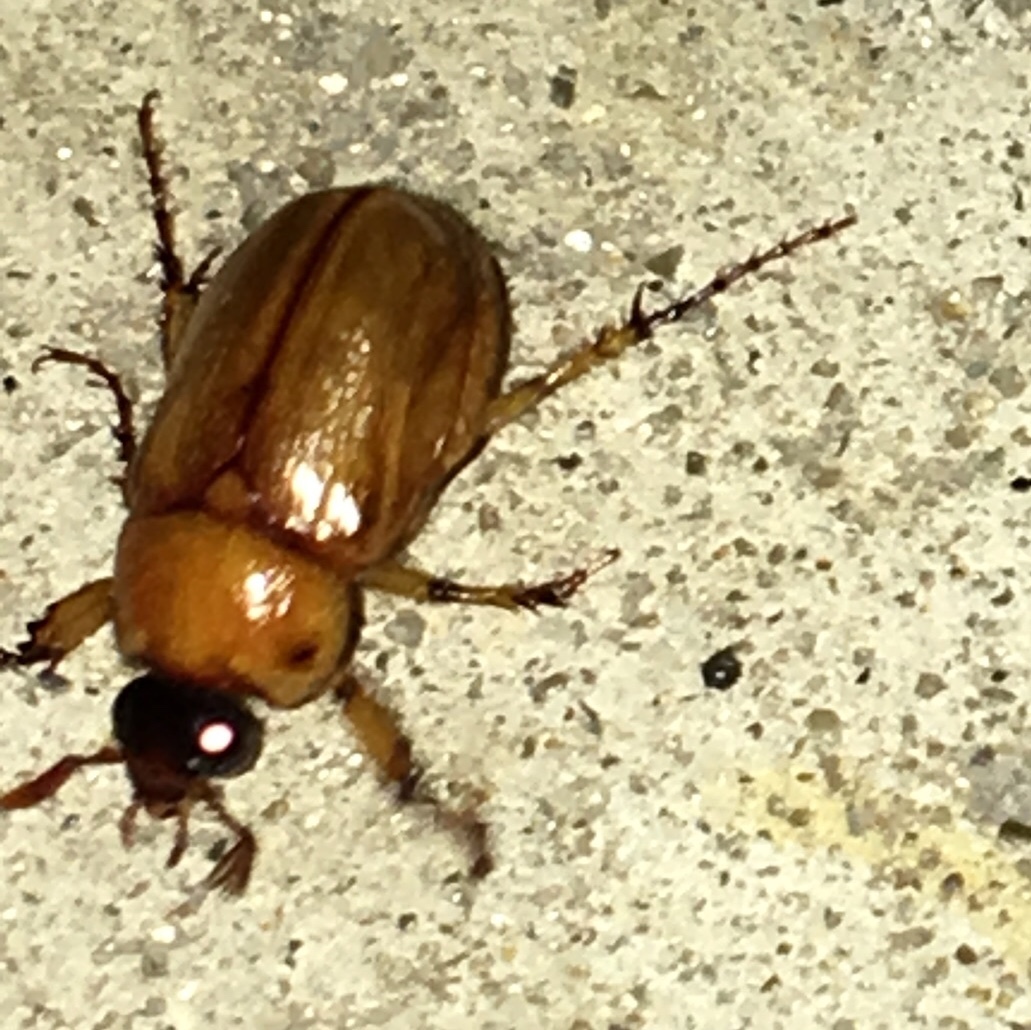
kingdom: Animalia
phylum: Arthropoda
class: Insecta
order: Coleoptera
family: Scarabaeidae
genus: Cyclocephala
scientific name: Cyclocephala lurida
